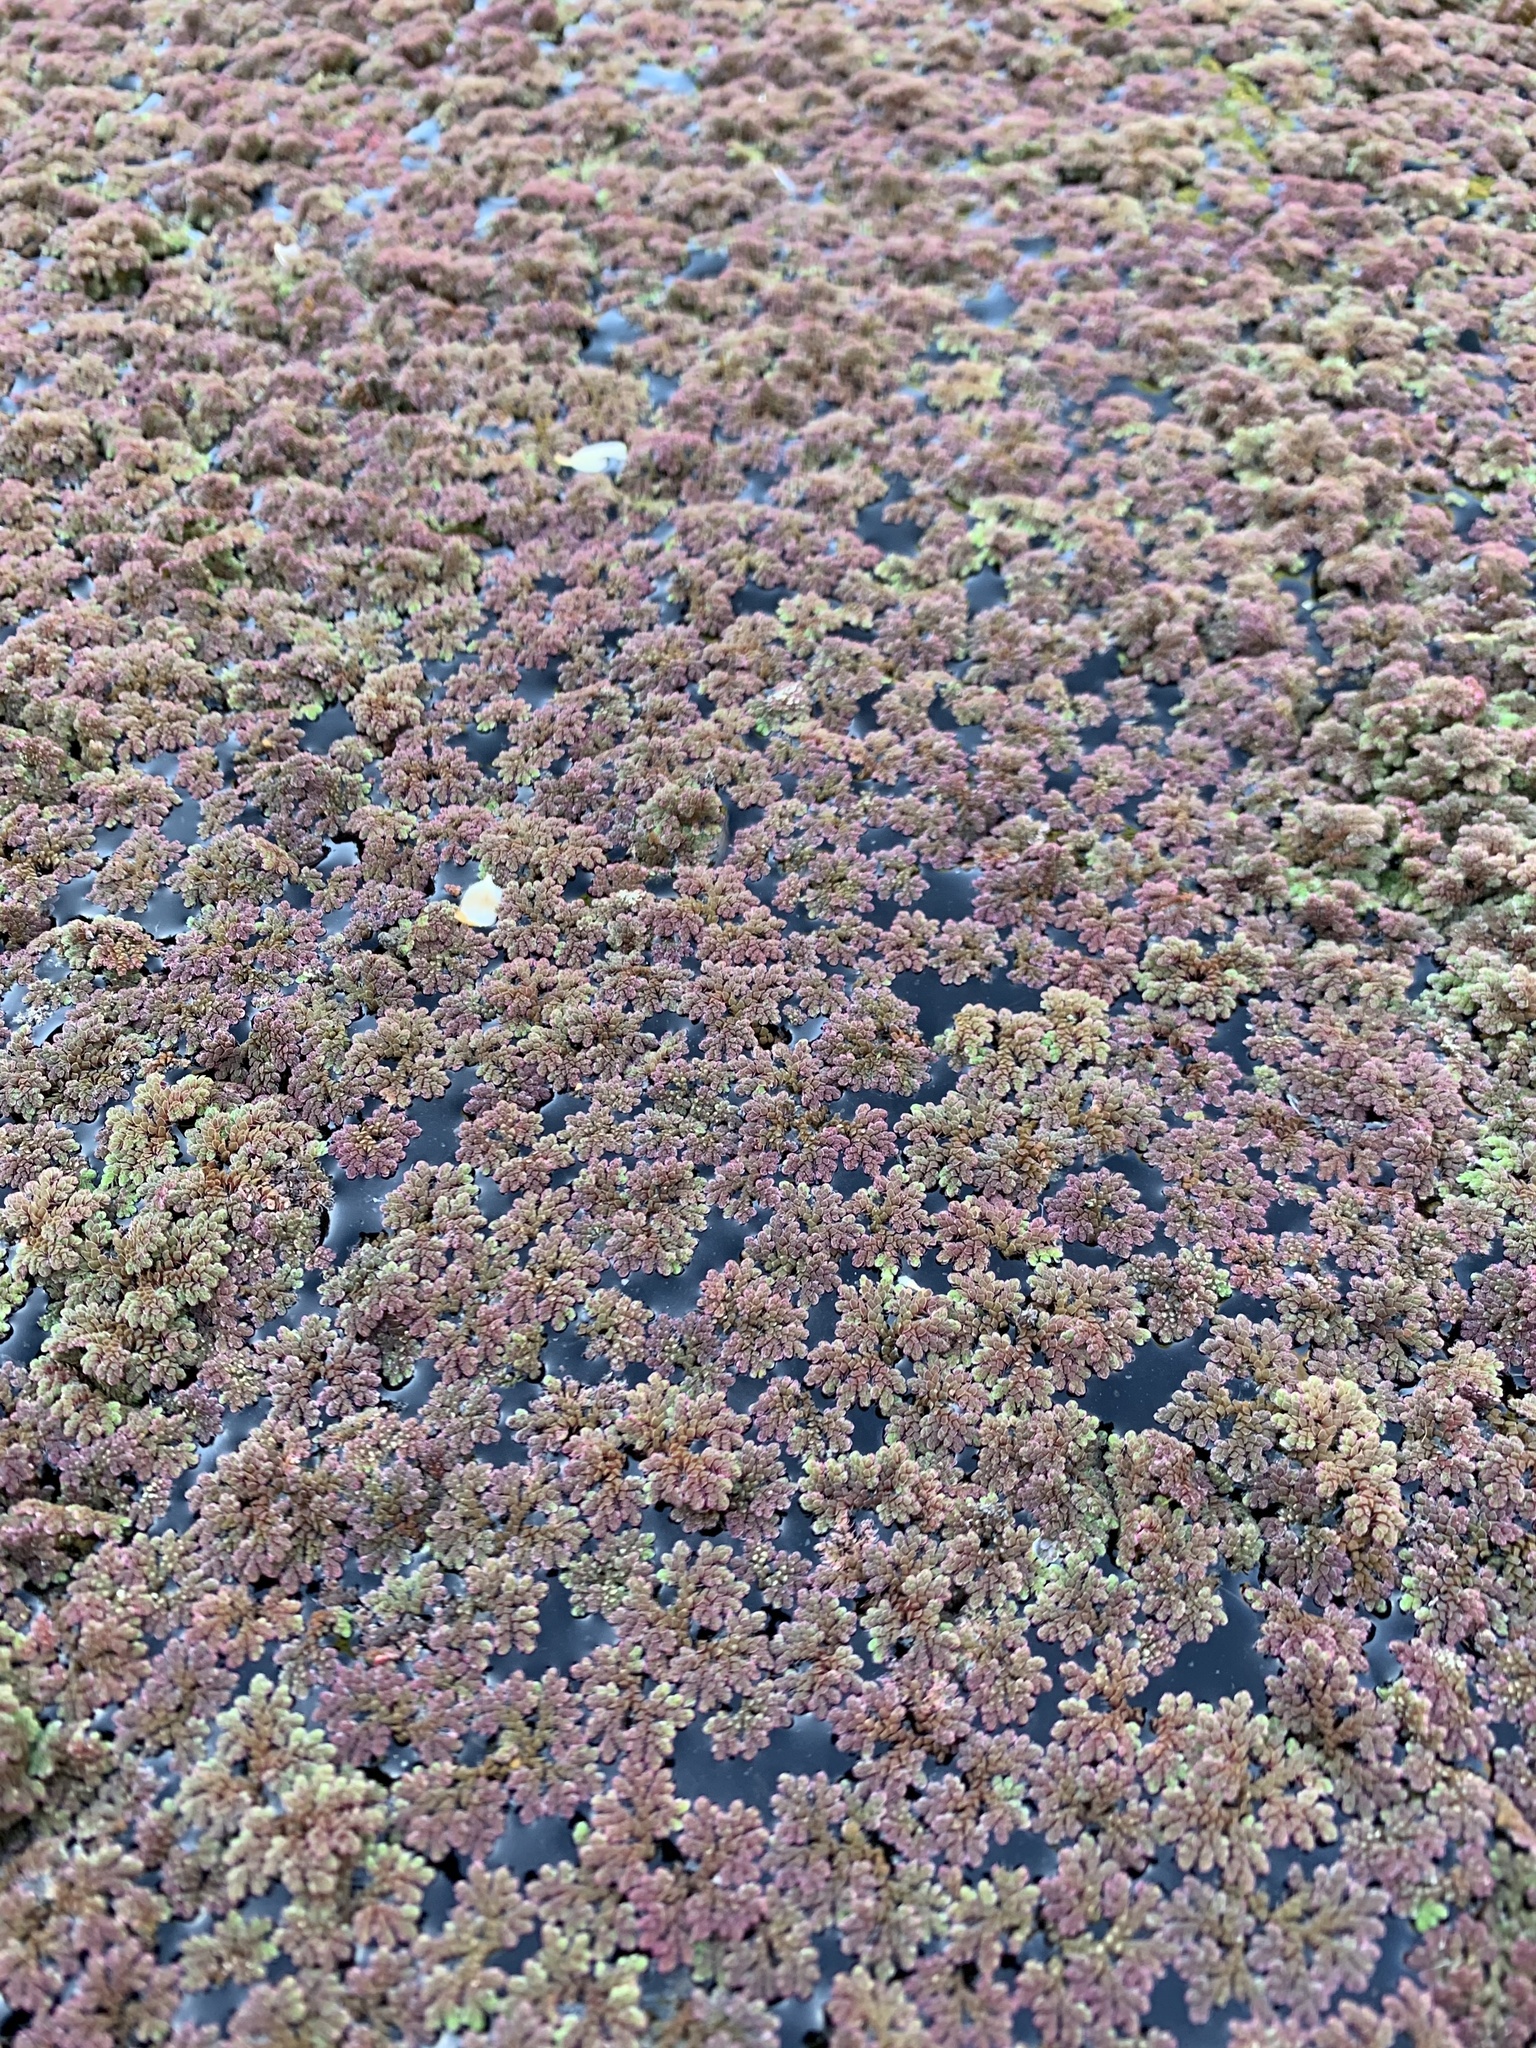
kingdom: Plantae
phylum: Tracheophyta
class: Polypodiopsida
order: Salviniales
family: Salviniaceae
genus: Azolla
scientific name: Azolla filiculoides
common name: Water fern
